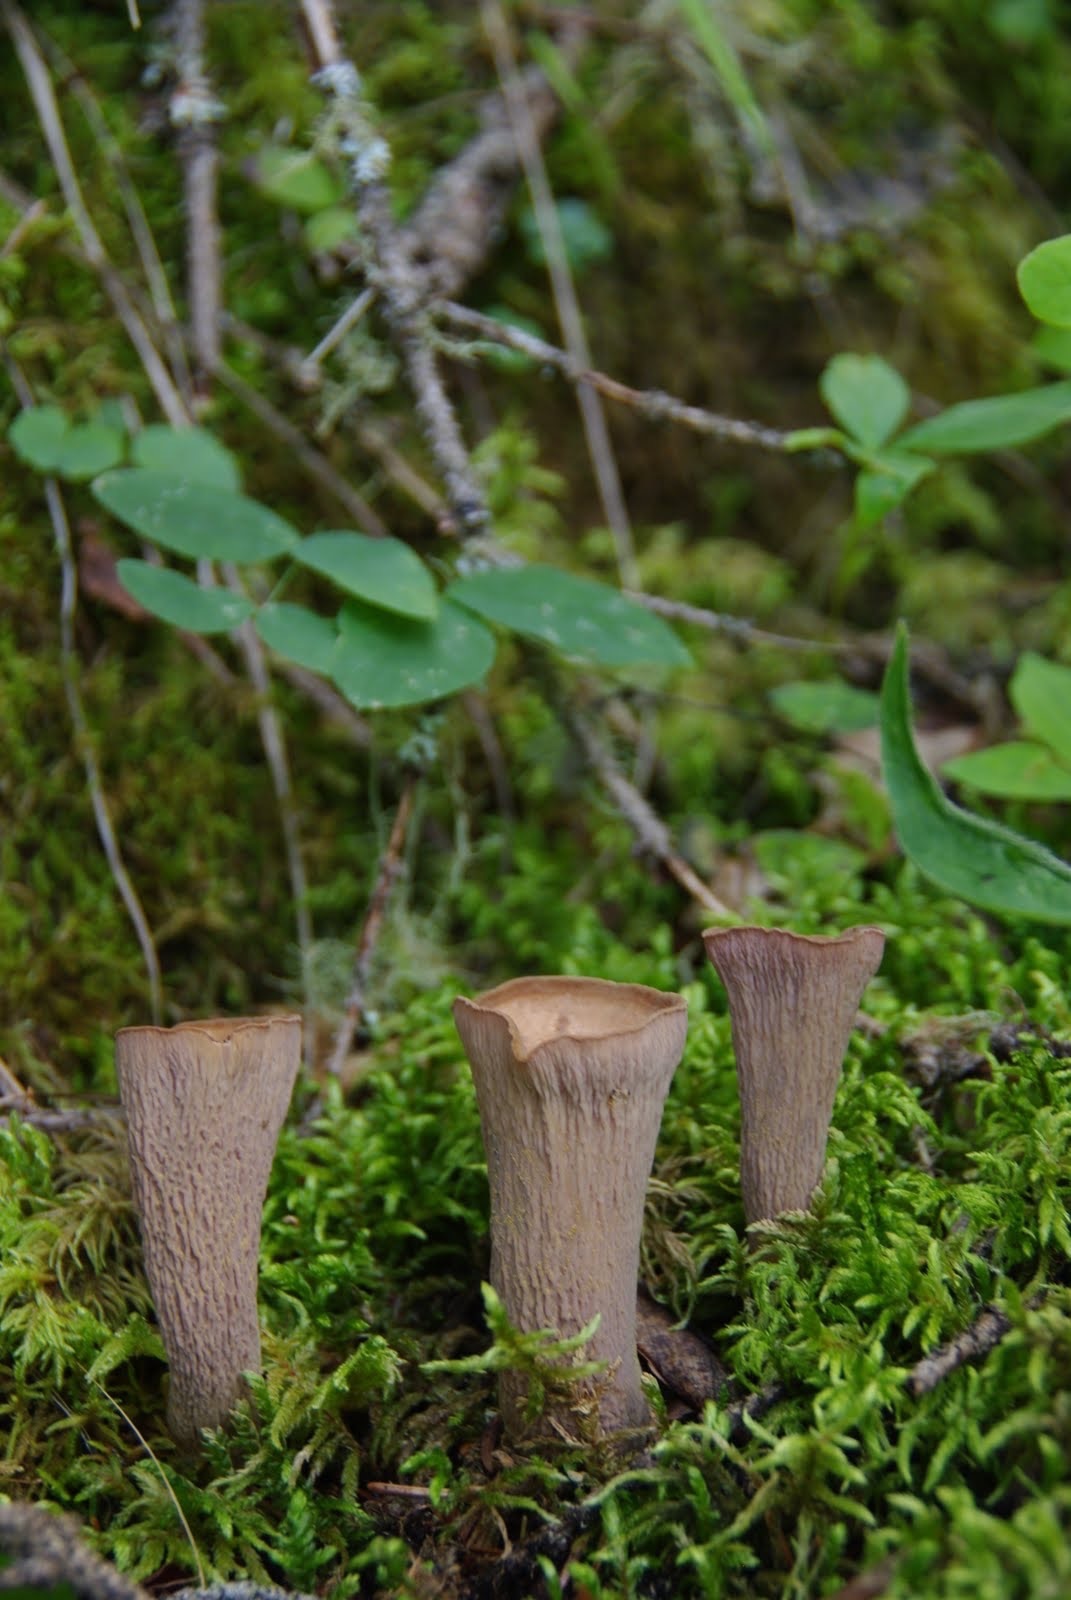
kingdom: Fungi
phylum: Basidiomycota
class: Agaricomycetes
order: Gomphales
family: Gomphaceae
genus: Gomphus
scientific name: Gomphus clavatus
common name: Pig's ear
